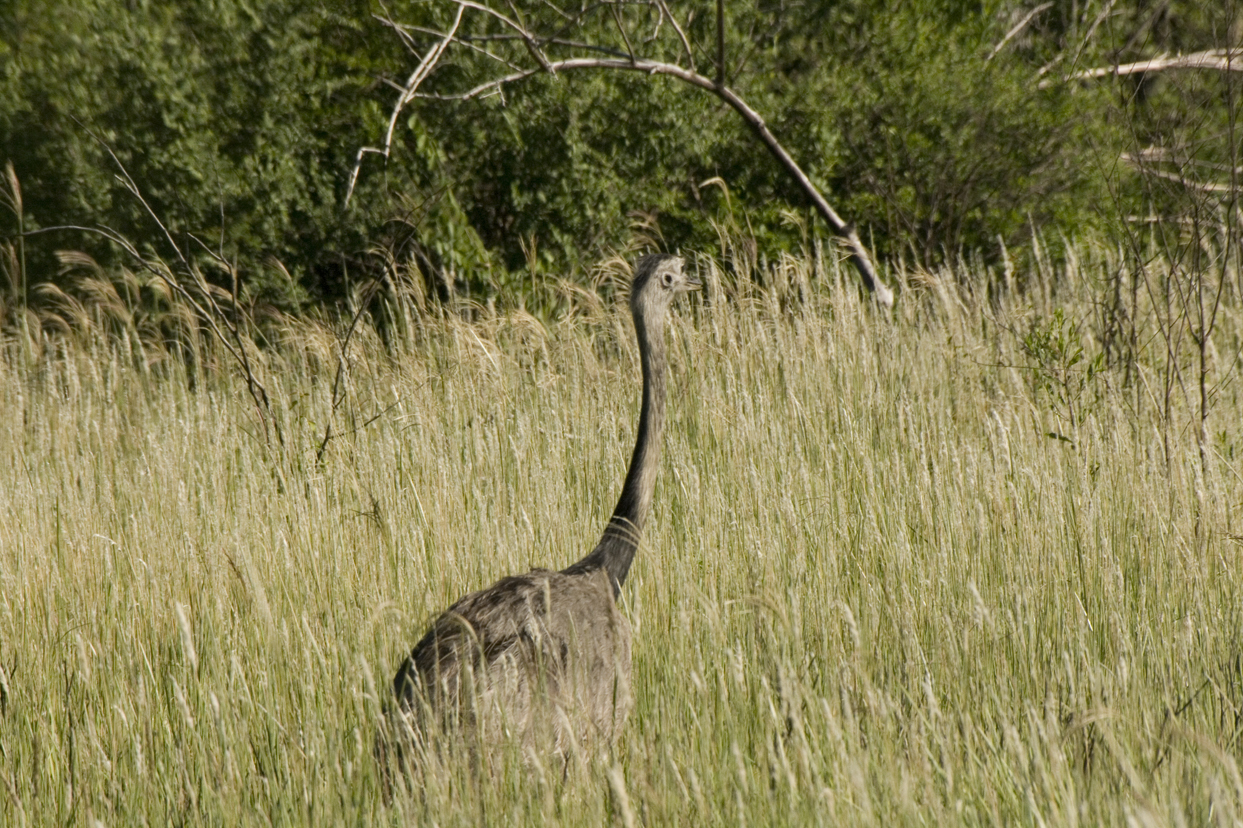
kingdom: Animalia
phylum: Chordata
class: Aves
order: Rheiformes
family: Rheidae
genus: Rhea
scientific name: Rhea americana
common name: Greater rhea
